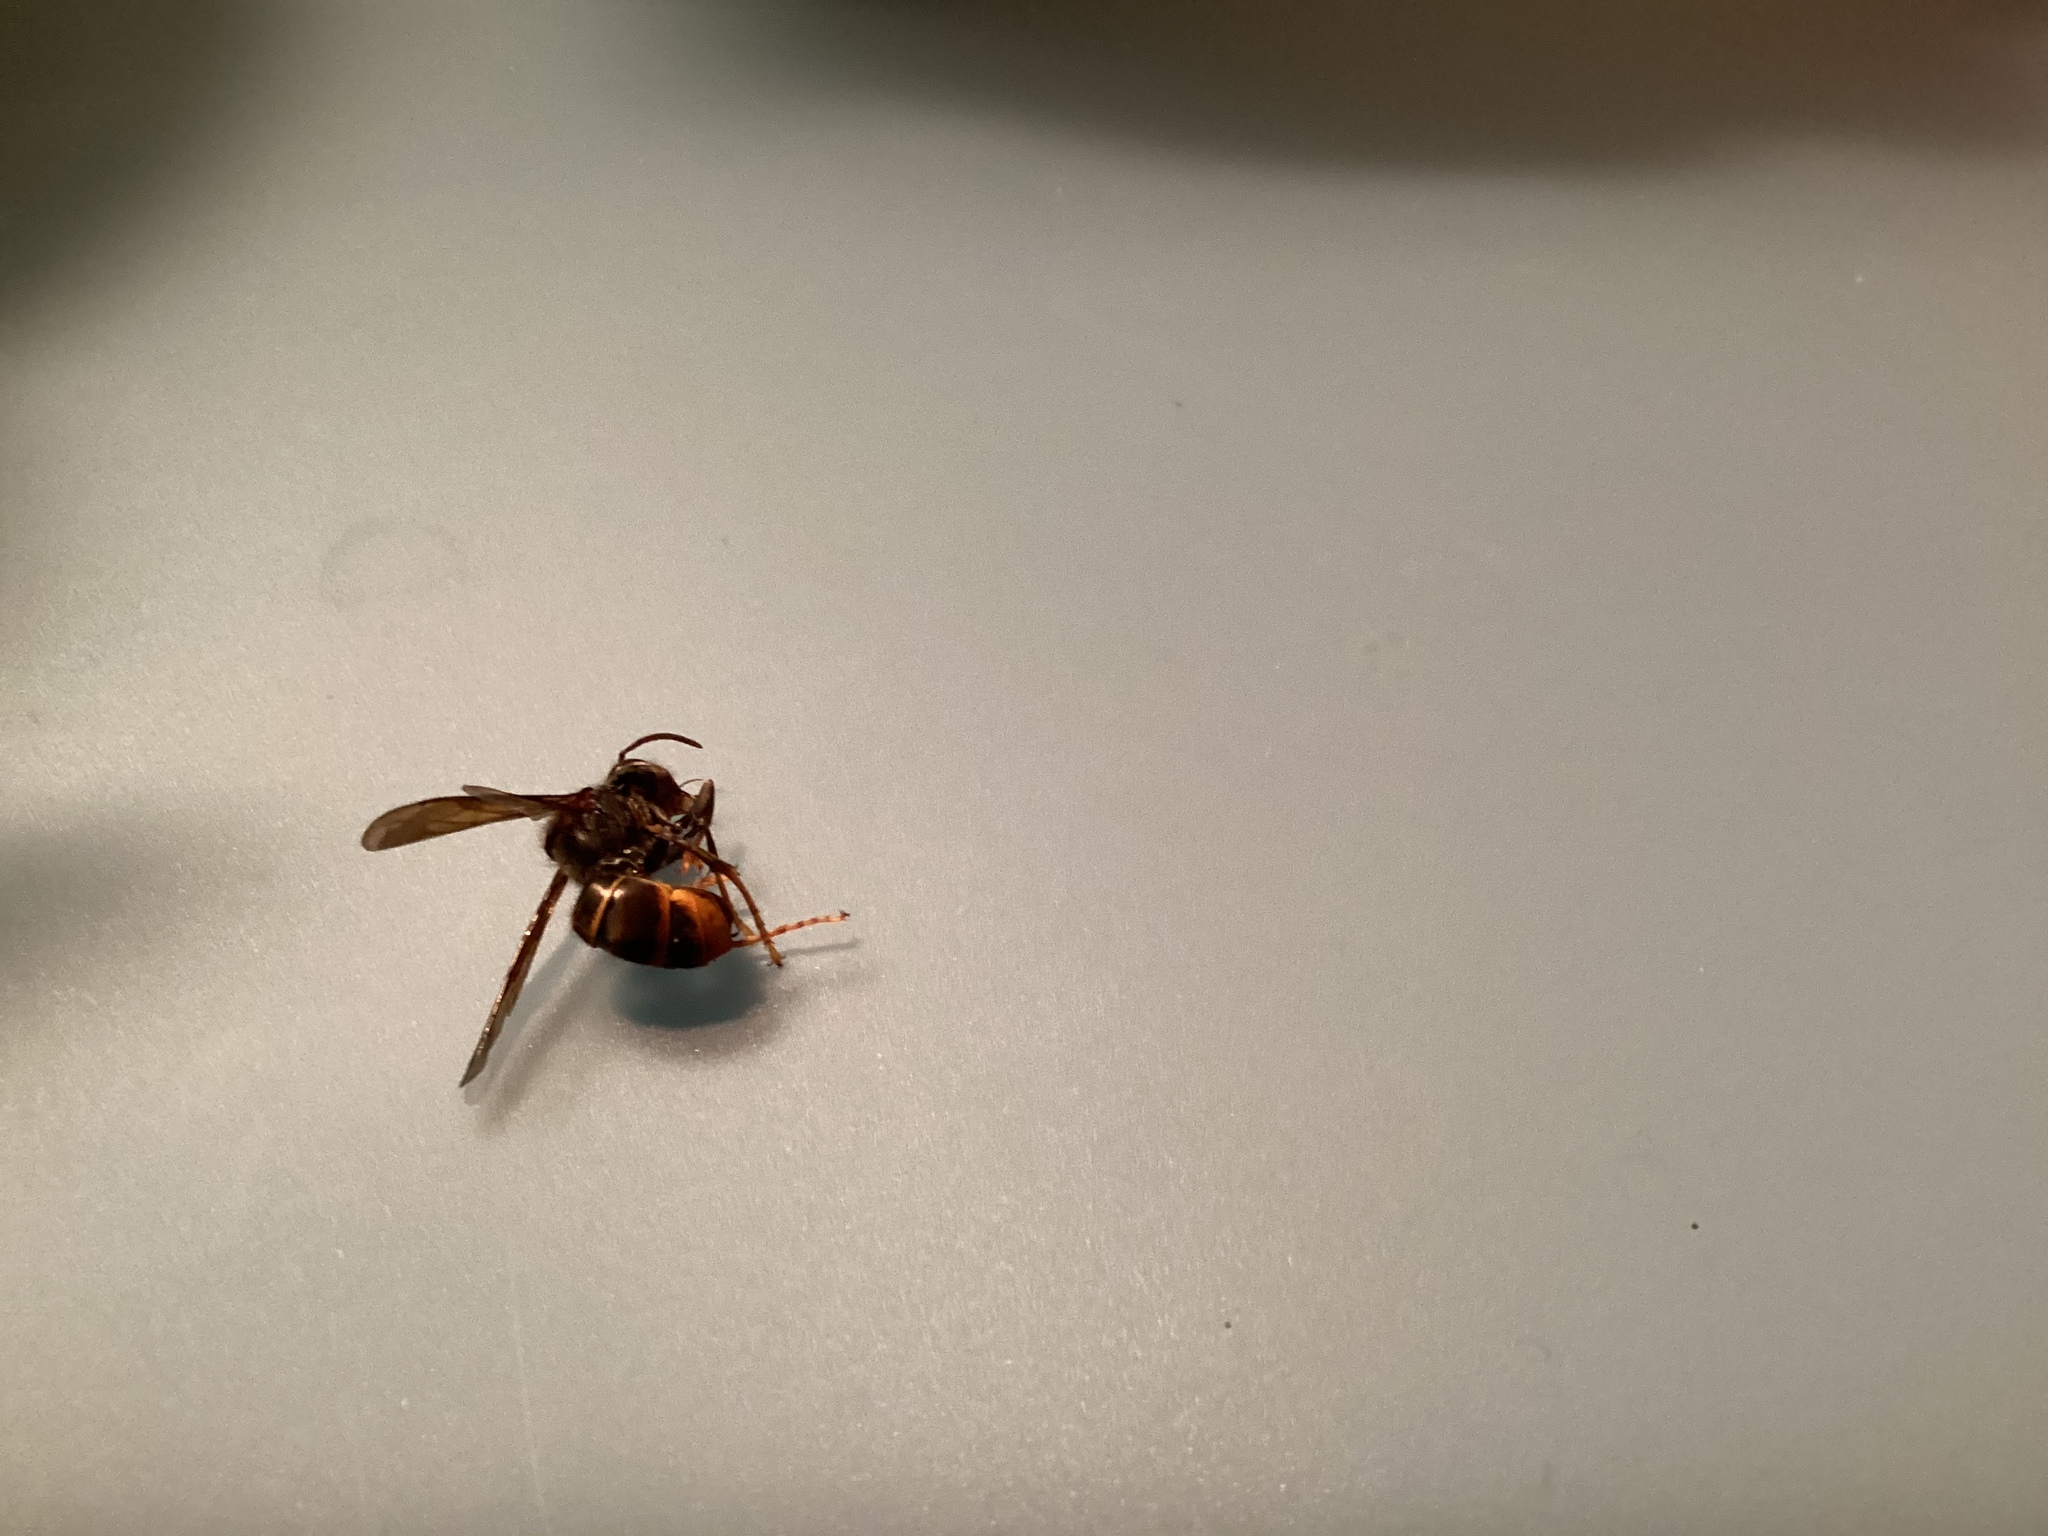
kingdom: Animalia
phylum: Arthropoda
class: Insecta
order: Hymenoptera
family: Vespidae
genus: Vespa
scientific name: Vespa velutina
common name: Asian hornet
